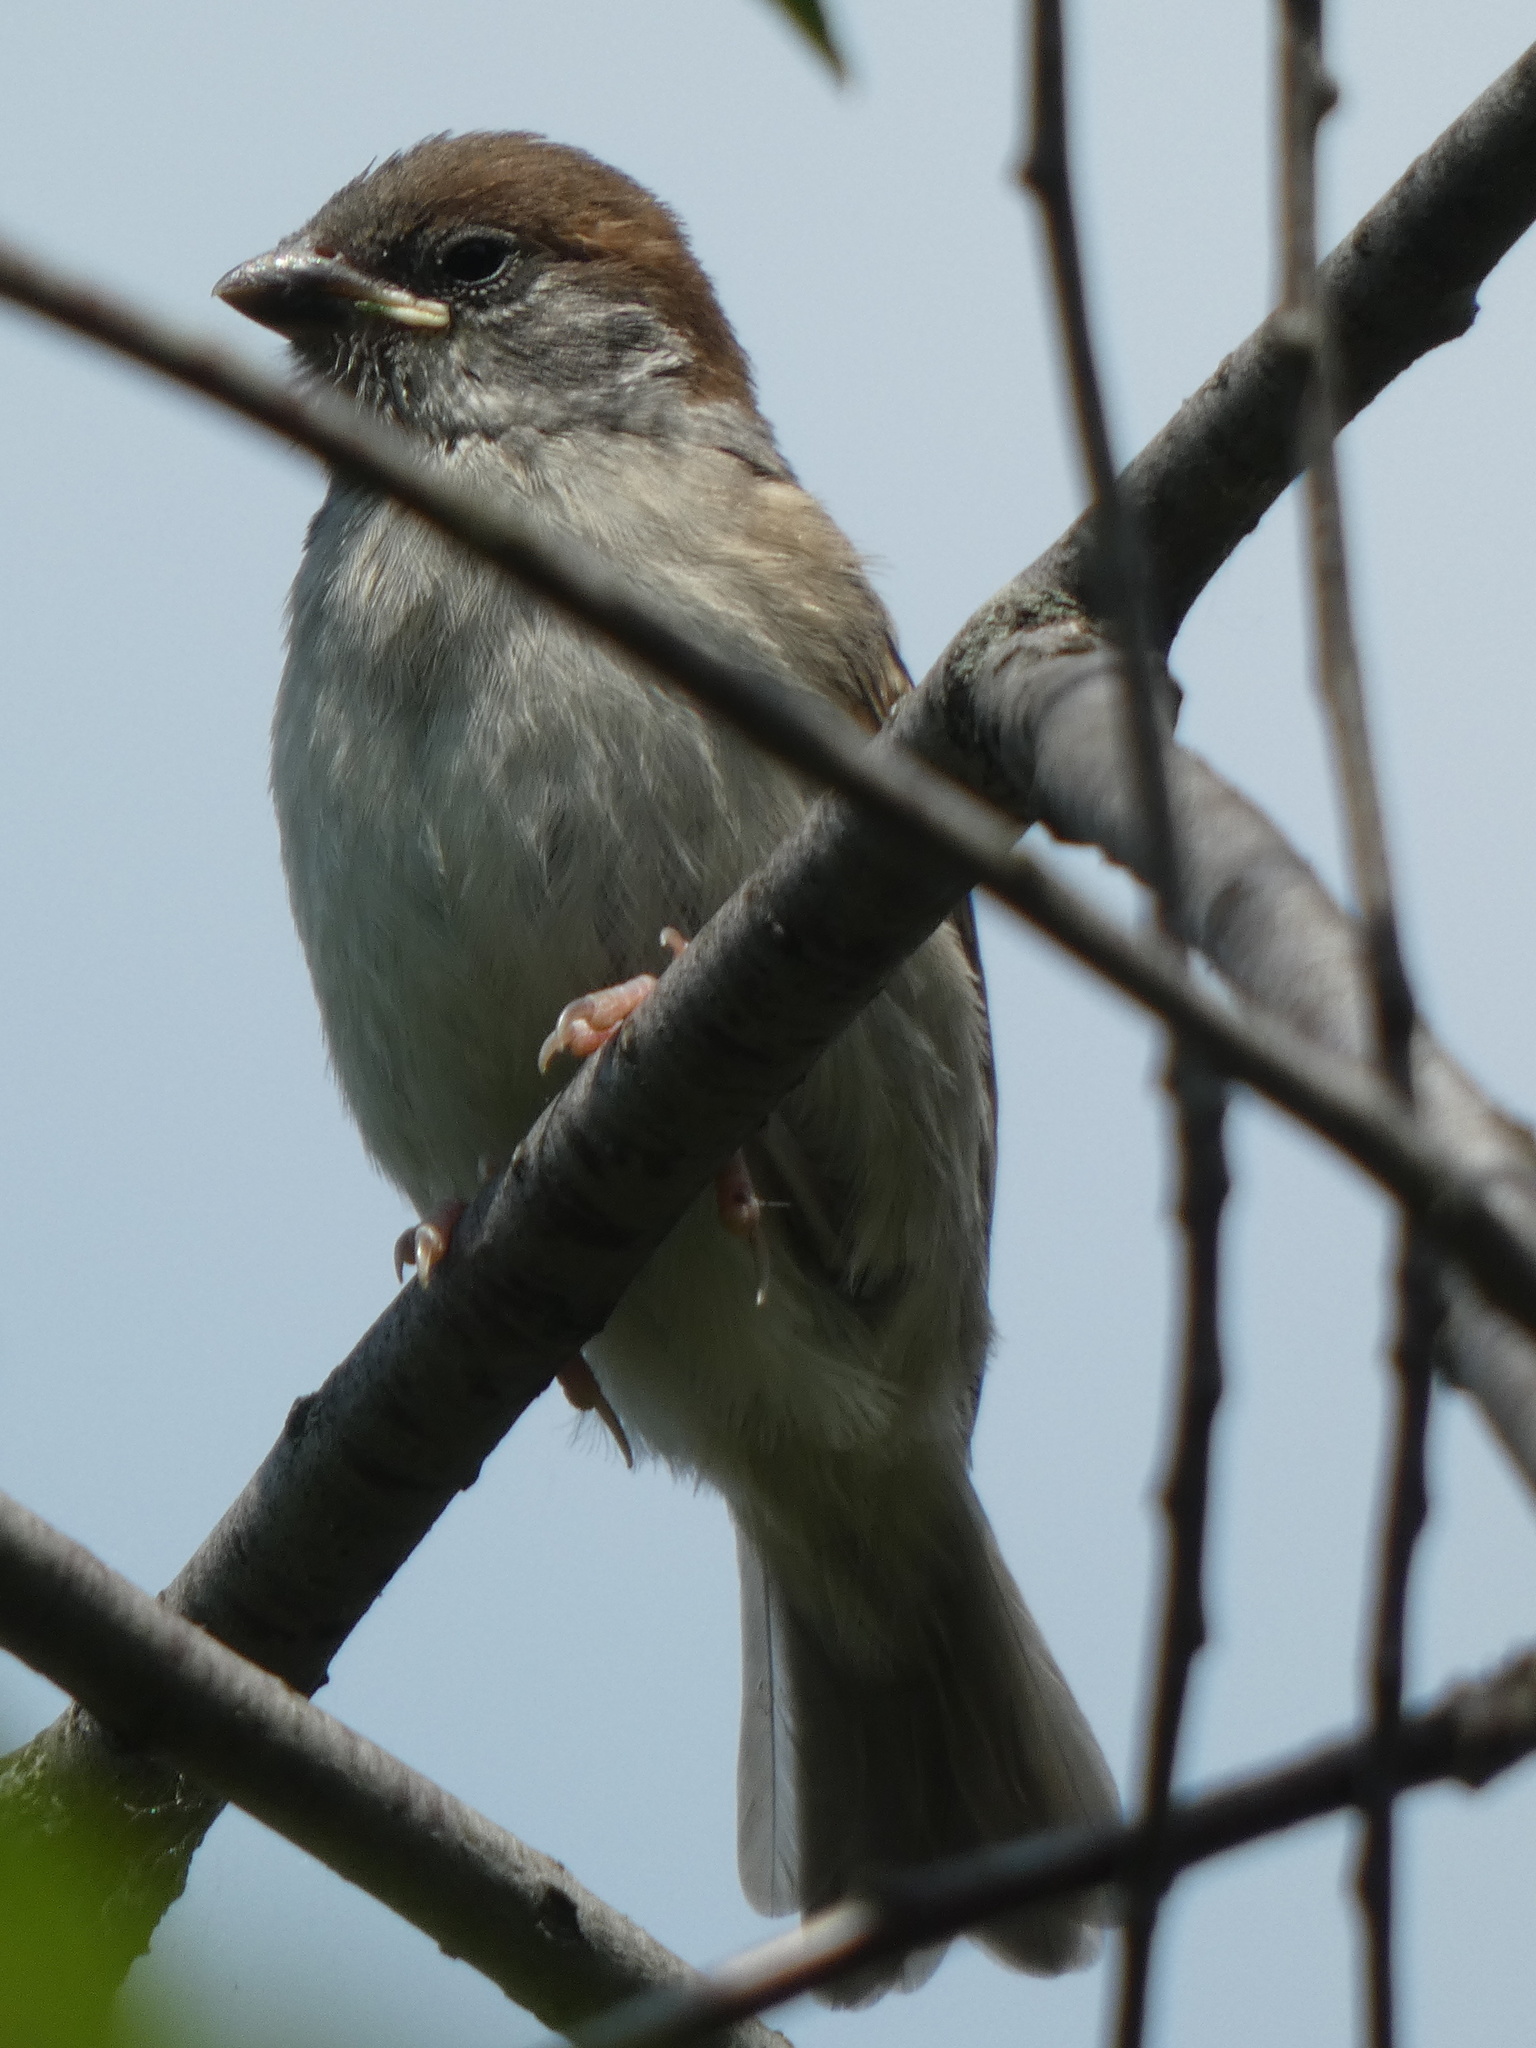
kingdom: Animalia
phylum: Chordata
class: Aves
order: Passeriformes
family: Passeridae
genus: Passer
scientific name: Passer montanus
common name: Eurasian tree sparrow
